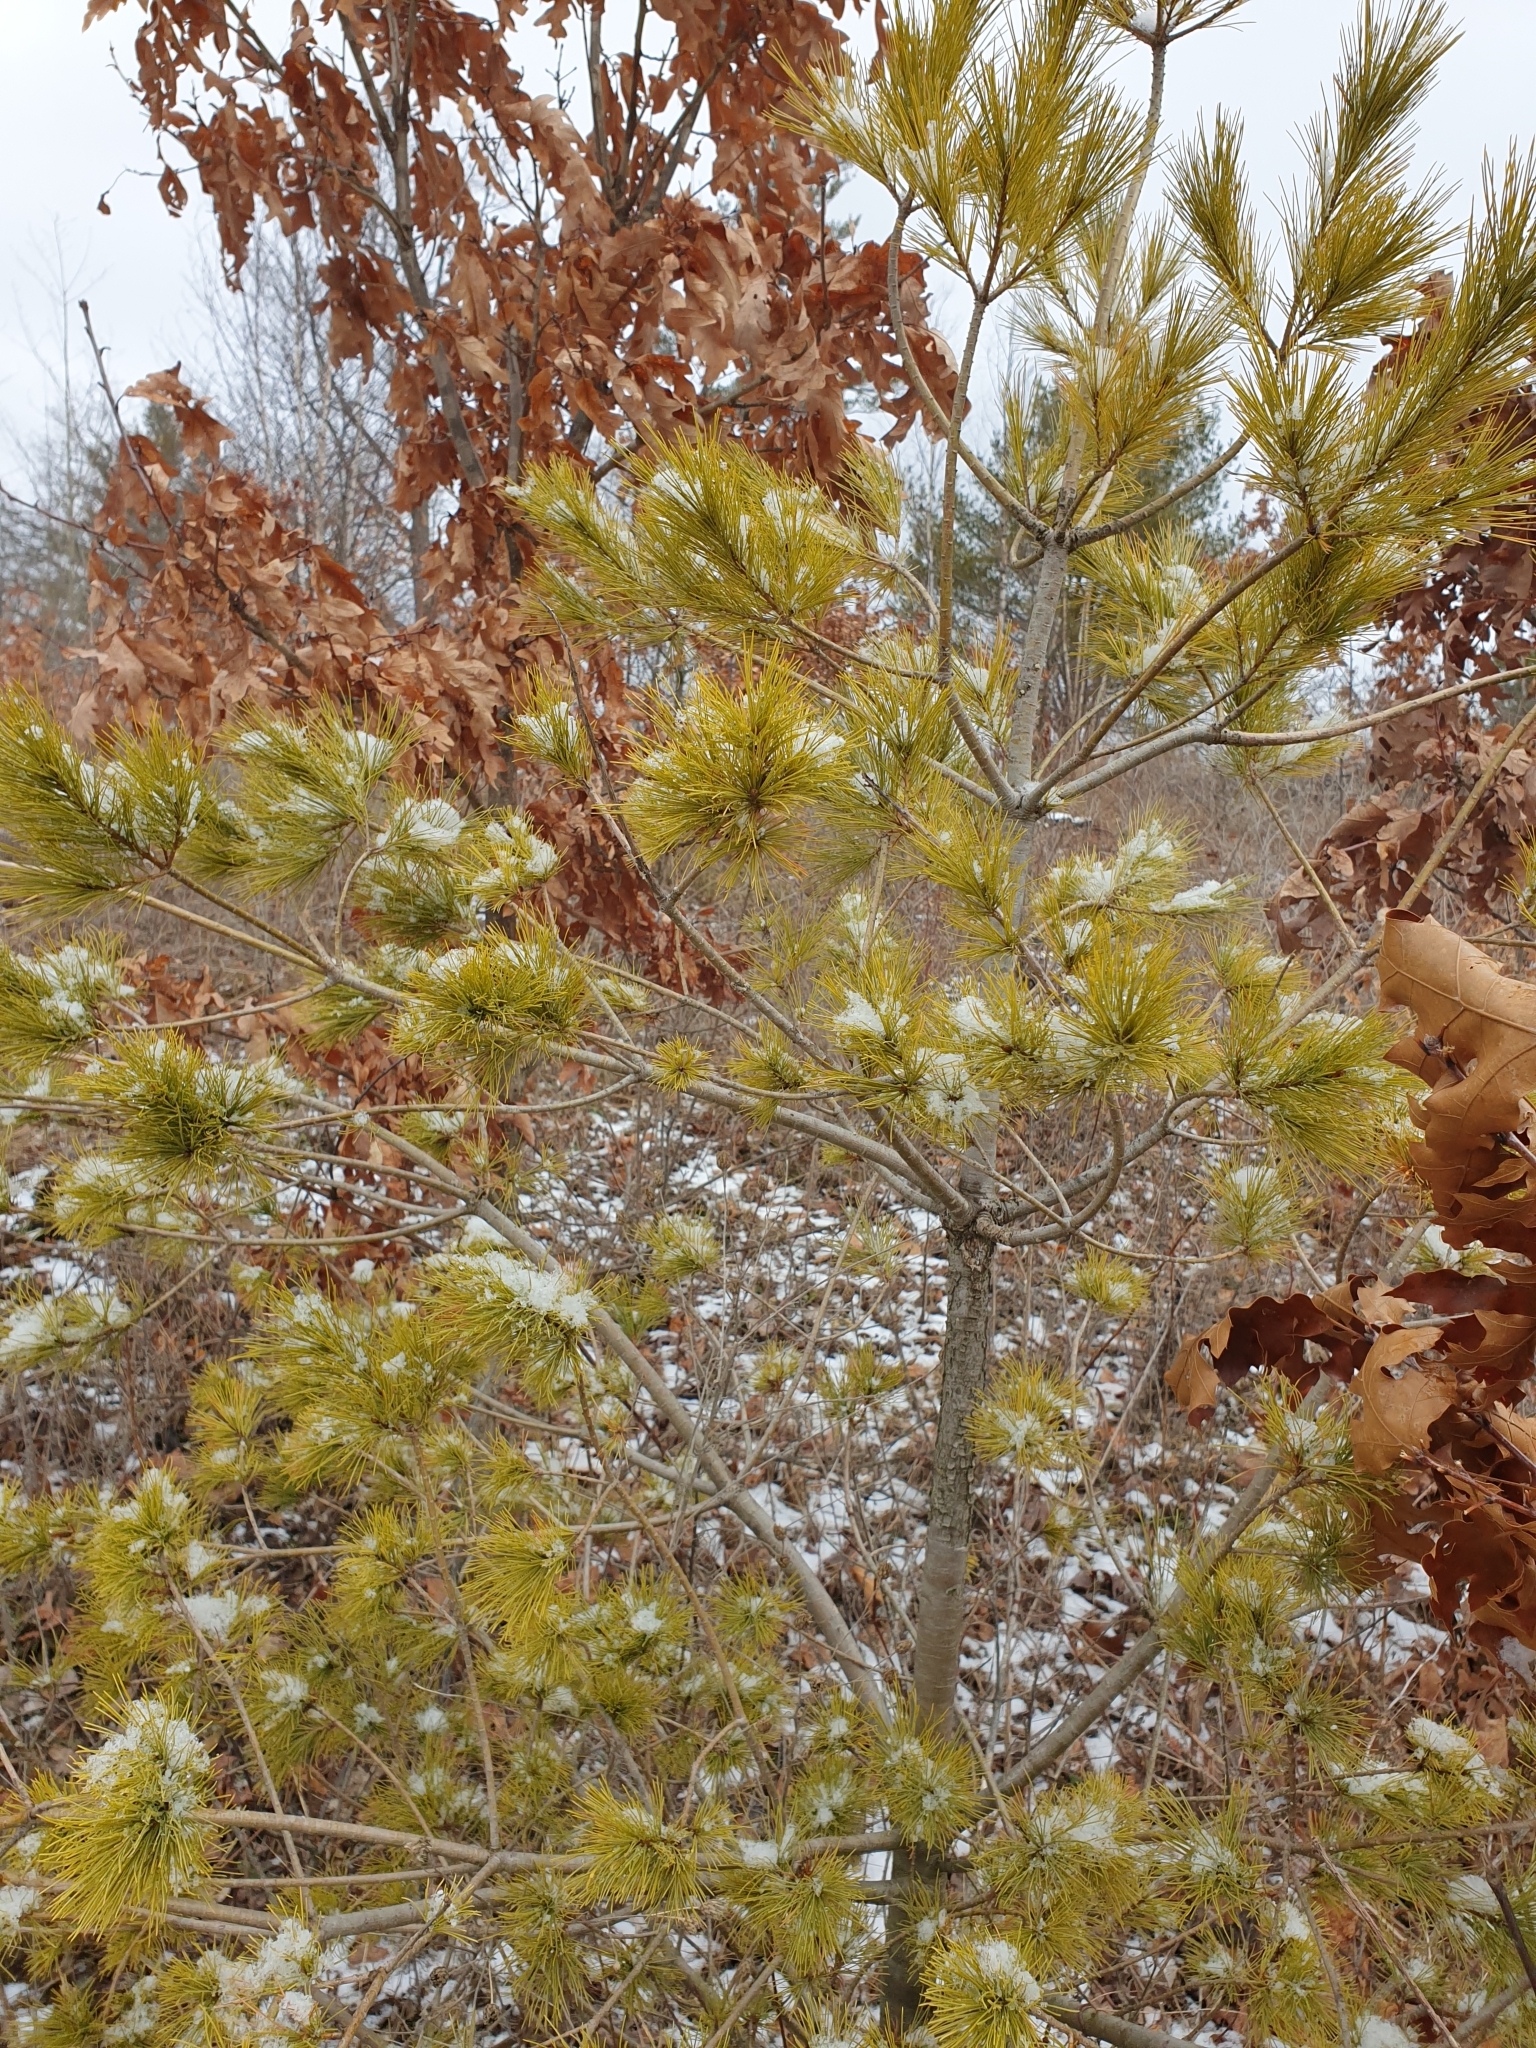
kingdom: Plantae
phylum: Tracheophyta
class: Pinopsida
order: Pinales
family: Pinaceae
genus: Pinus
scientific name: Pinus strobus
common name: Weymouth pine
